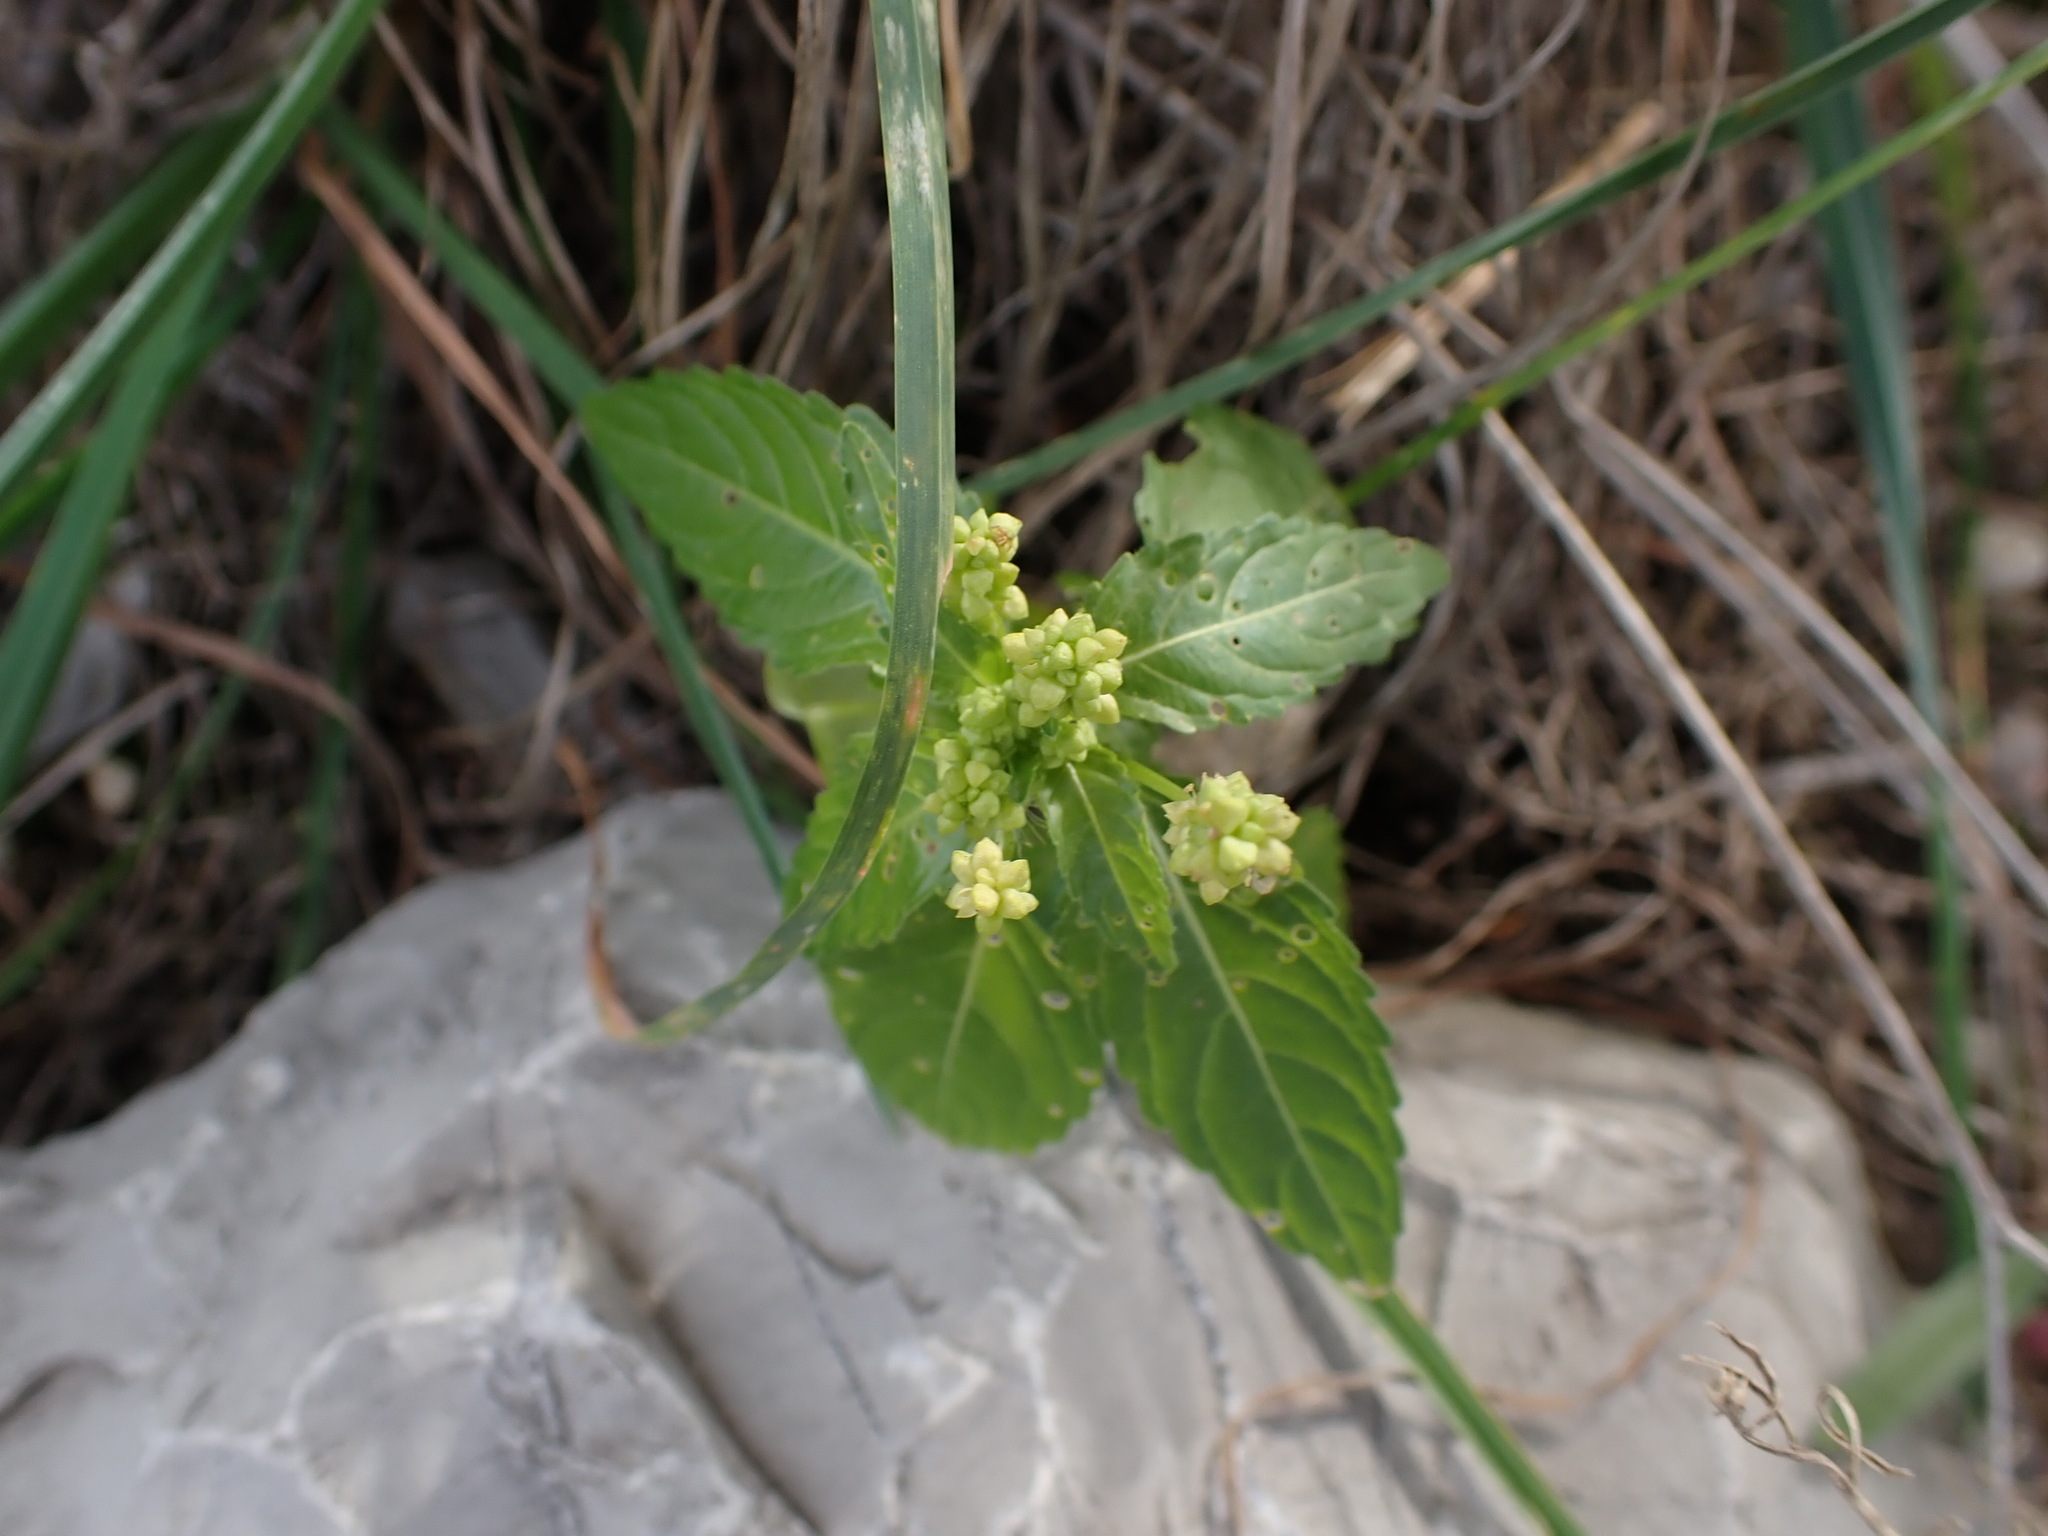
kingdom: Plantae
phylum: Tracheophyta
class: Magnoliopsida
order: Malpighiales
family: Euphorbiaceae
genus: Mercurialis
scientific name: Mercurialis annua
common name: Annual mercury
